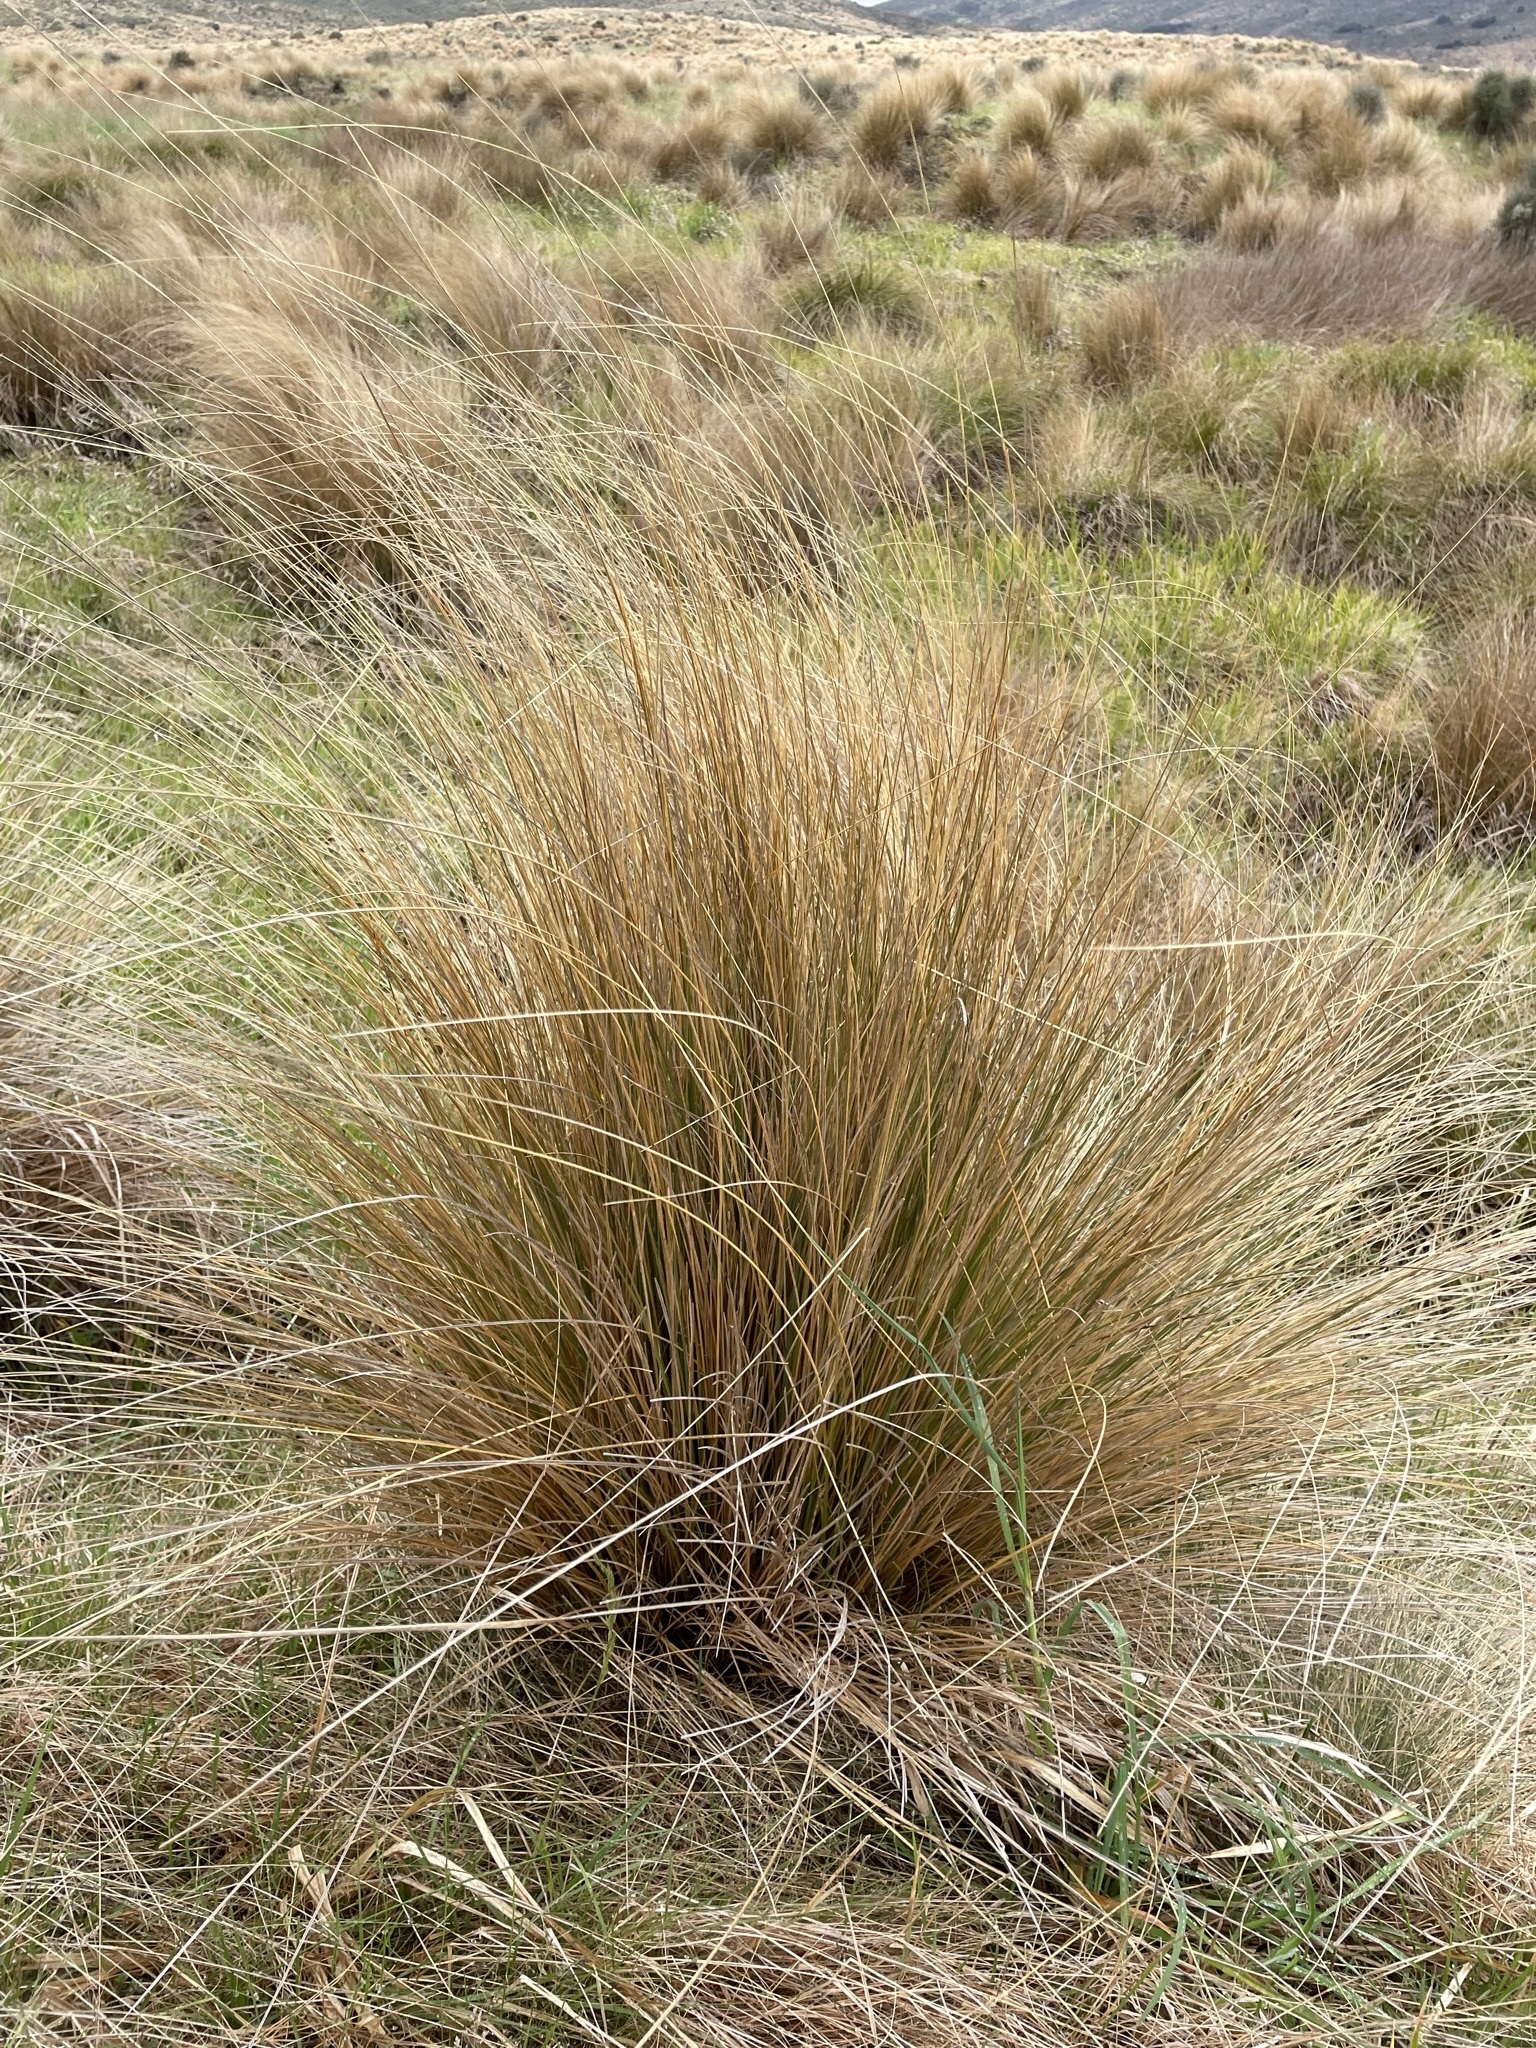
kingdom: Plantae
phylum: Tracheophyta
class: Liliopsida
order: Poales
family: Poaceae
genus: Chionochloa
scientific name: Chionochloa rubra
